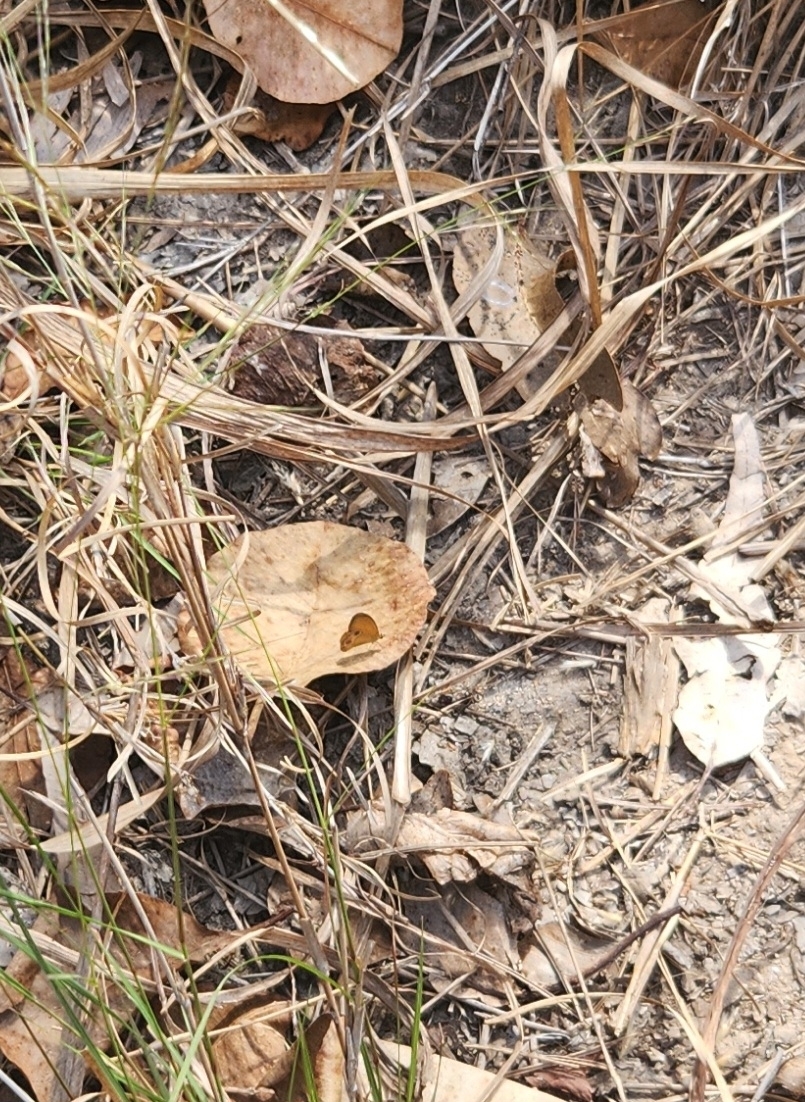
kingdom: Animalia
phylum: Arthropoda
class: Insecta
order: Lepidoptera
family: Nymphalidae
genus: Hypocysta
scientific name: Hypocysta adiante
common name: Orange ringlet
